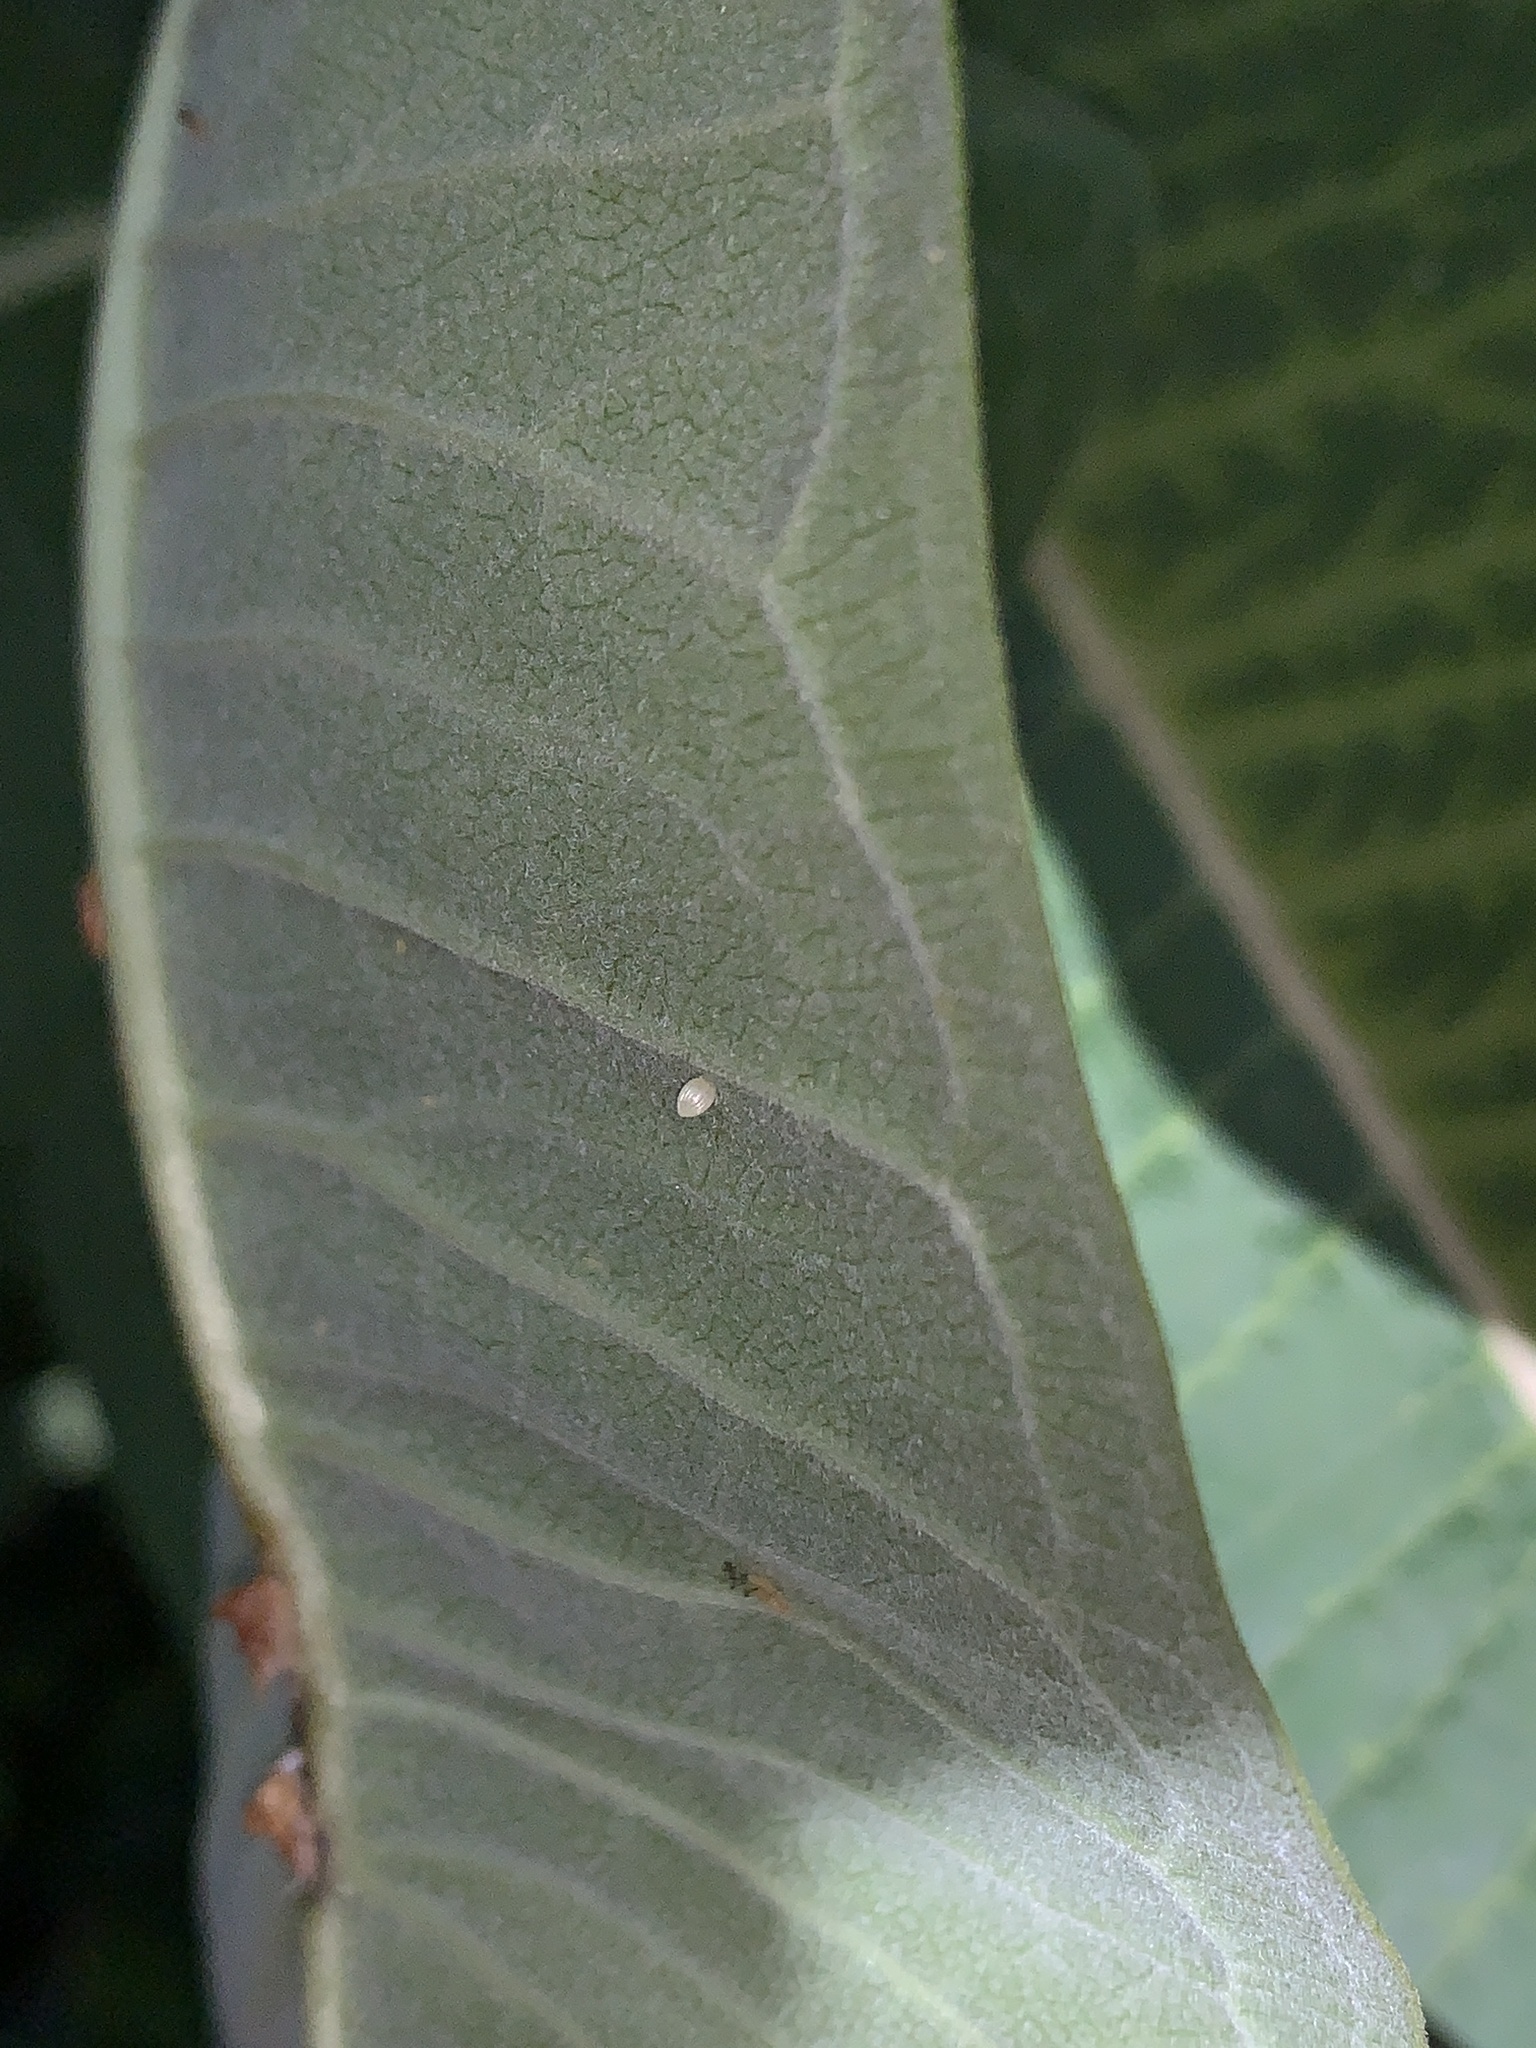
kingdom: Animalia
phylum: Arthropoda
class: Insecta
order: Lepidoptera
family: Nymphalidae
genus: Danaus
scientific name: Danaus plexippus
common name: Monarch
